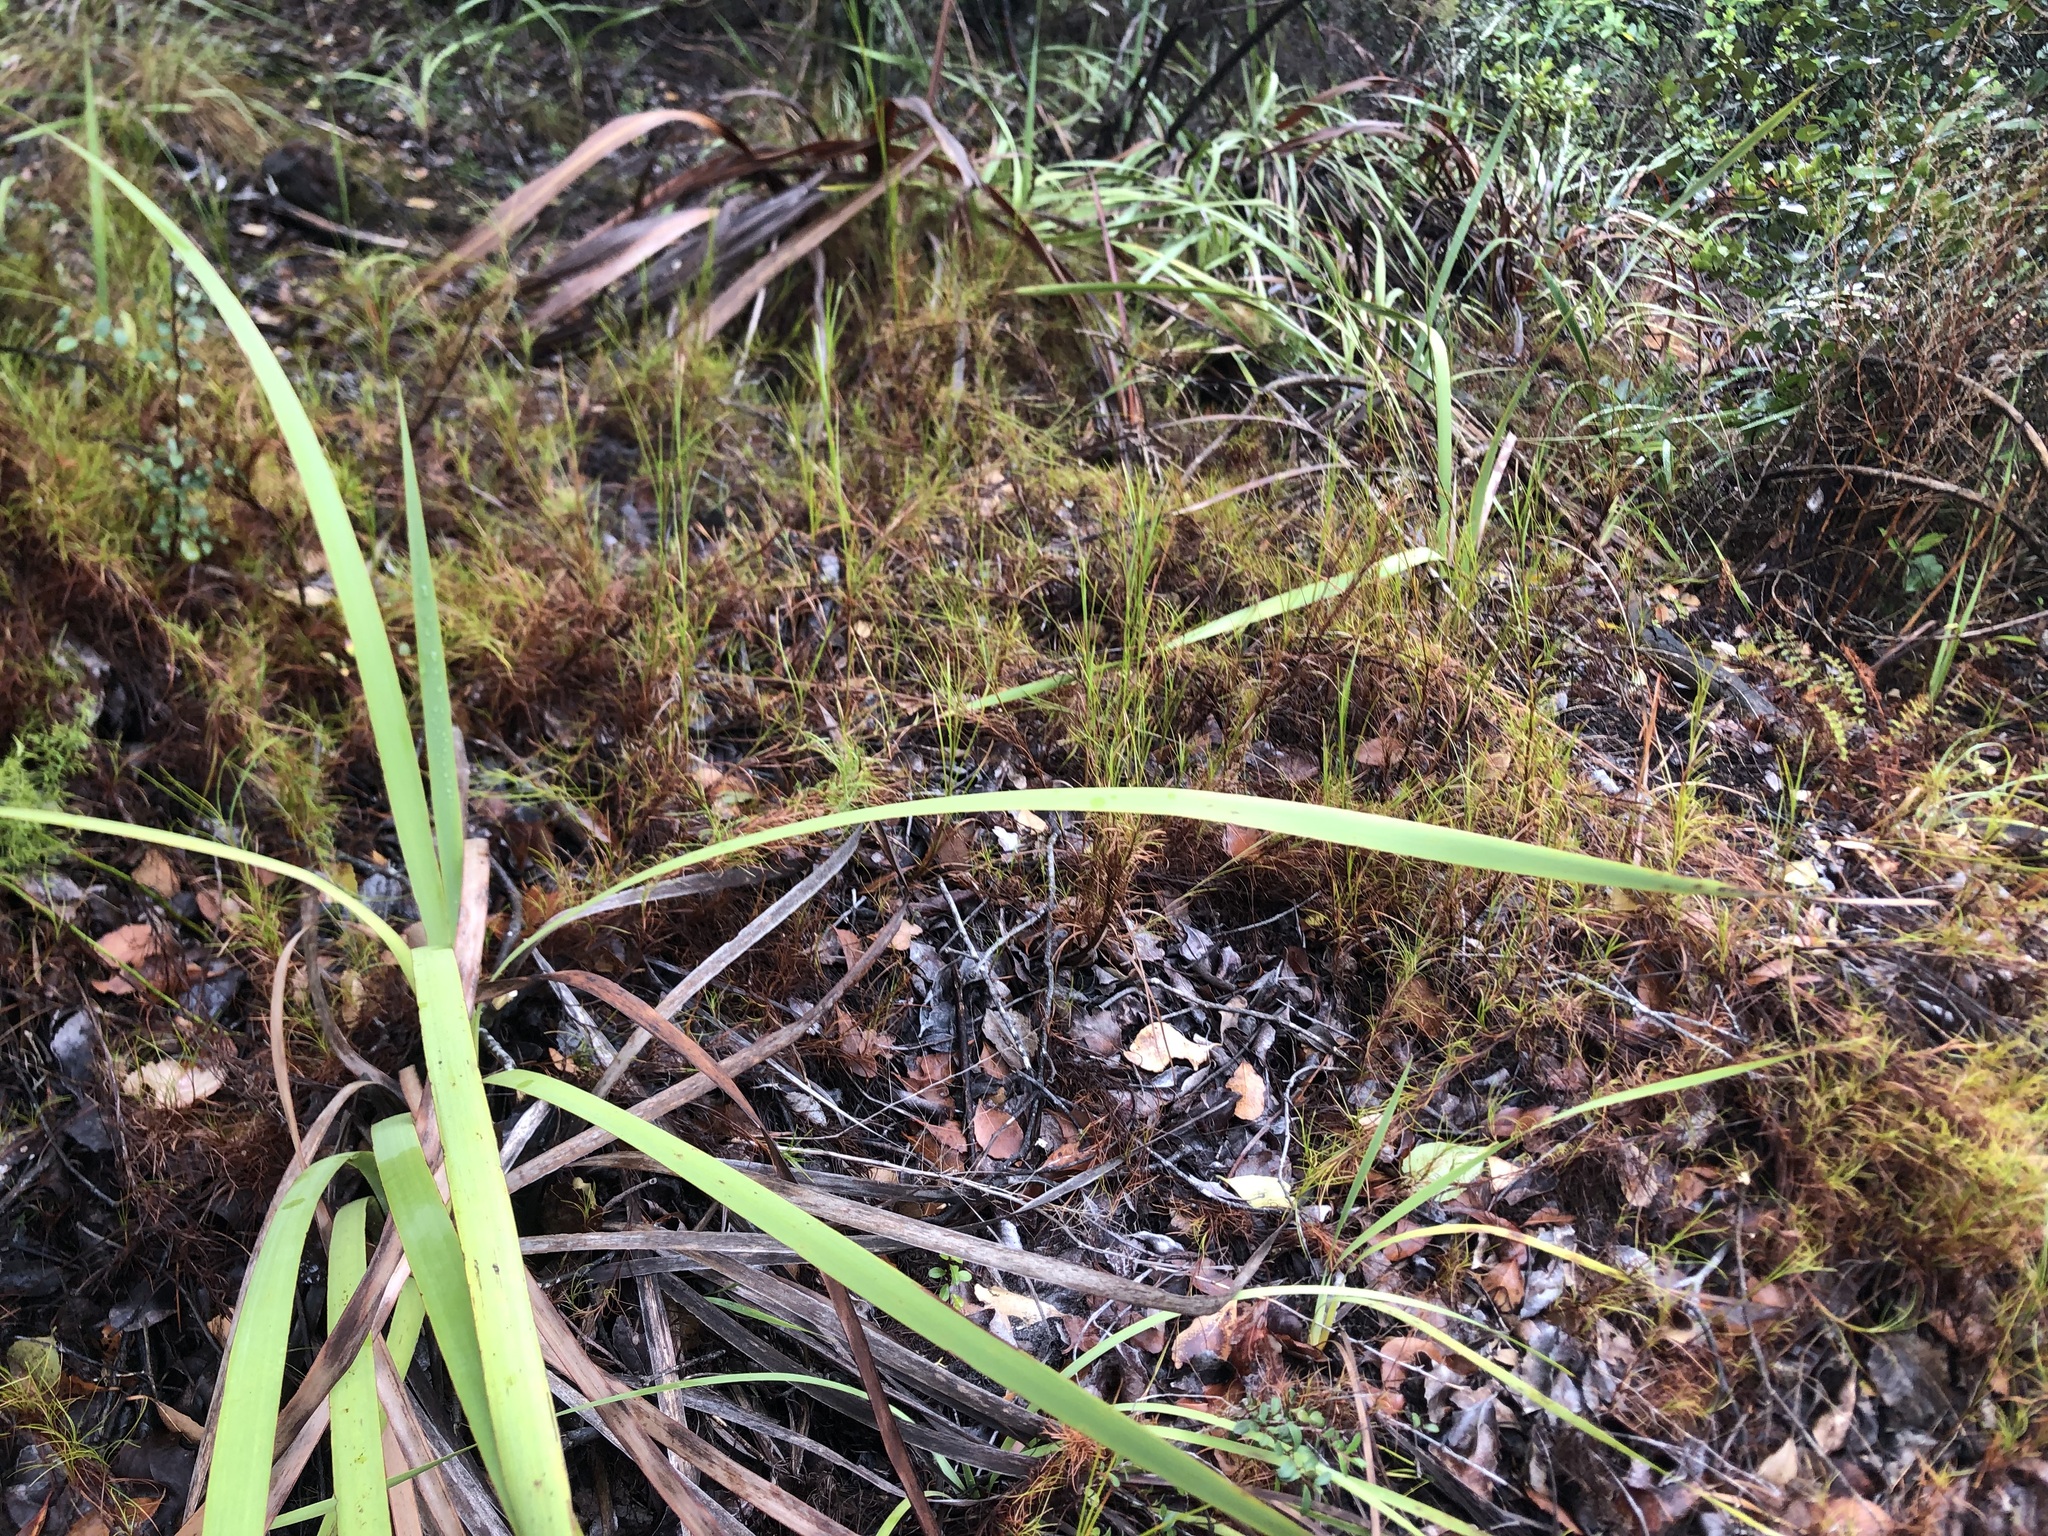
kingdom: Plantae
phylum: Tracheophyta
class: Liliopsida
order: Poales
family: Cyperaceae
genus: Ficinia
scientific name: Ficinia ramosissima
